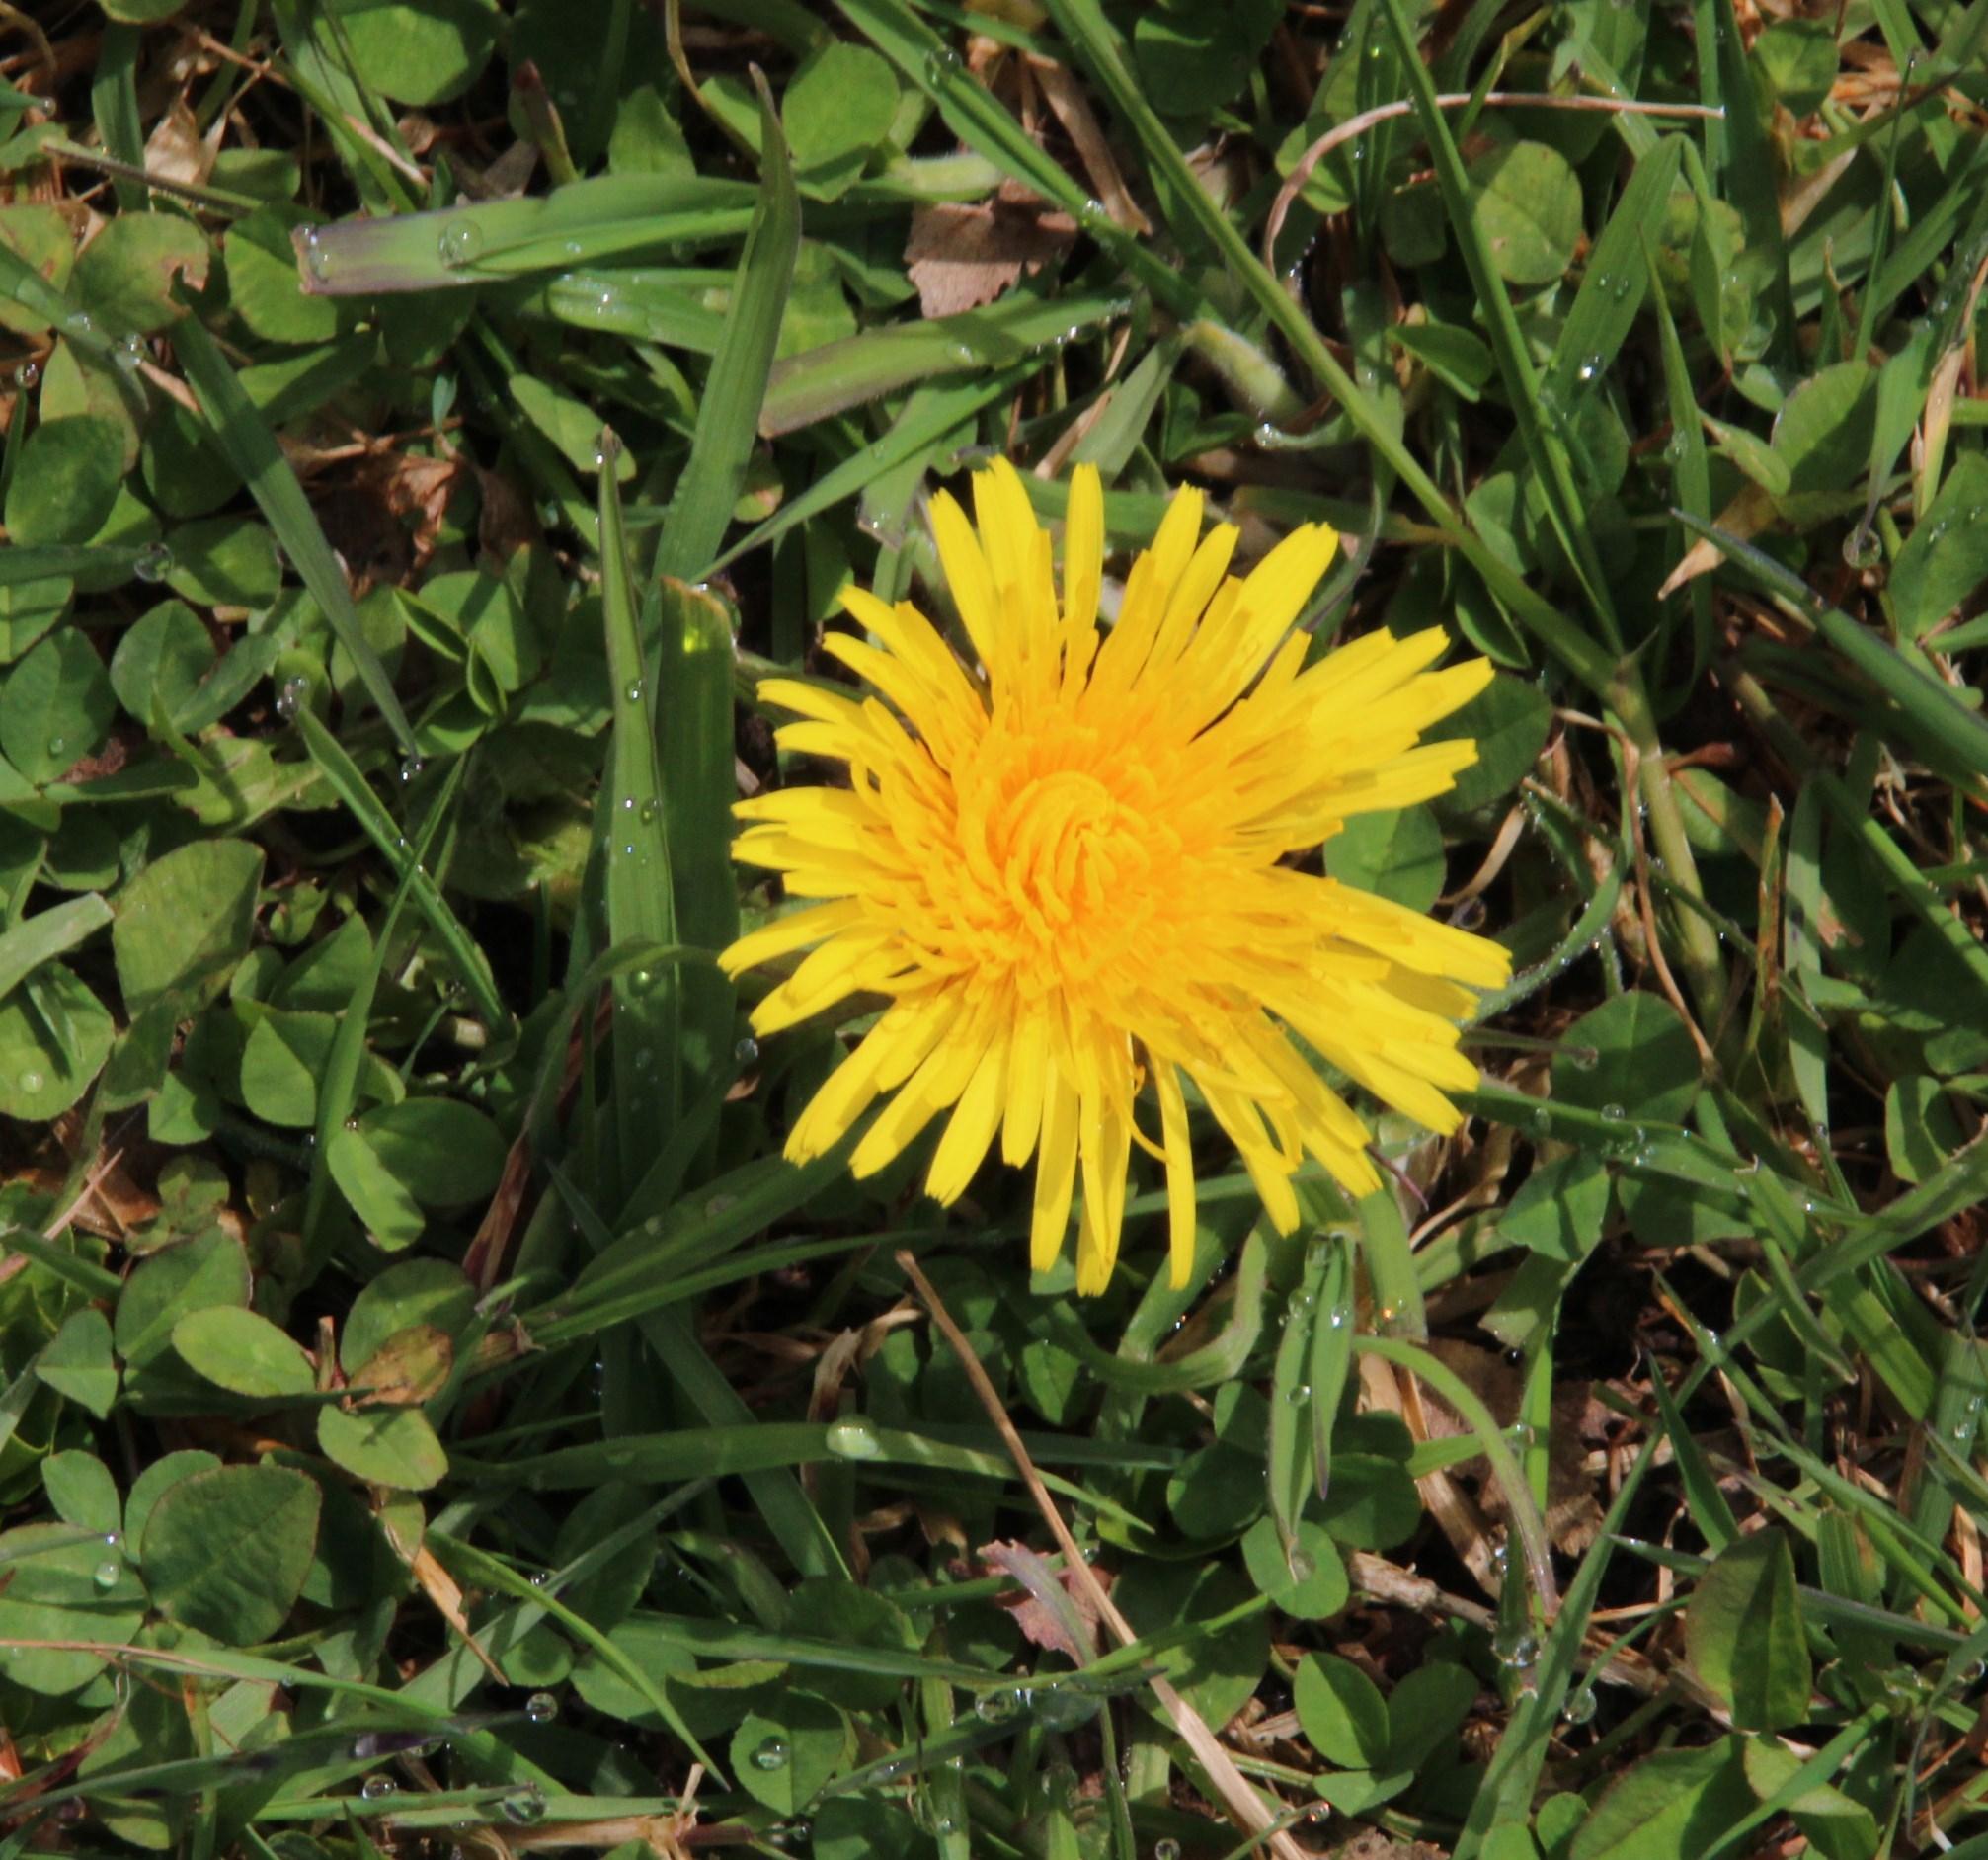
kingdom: Plantae
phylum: Tracheophyta
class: Magnoliopsida
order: Asterales
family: Asteraceae
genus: Taraxacum
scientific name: Taraxacum
